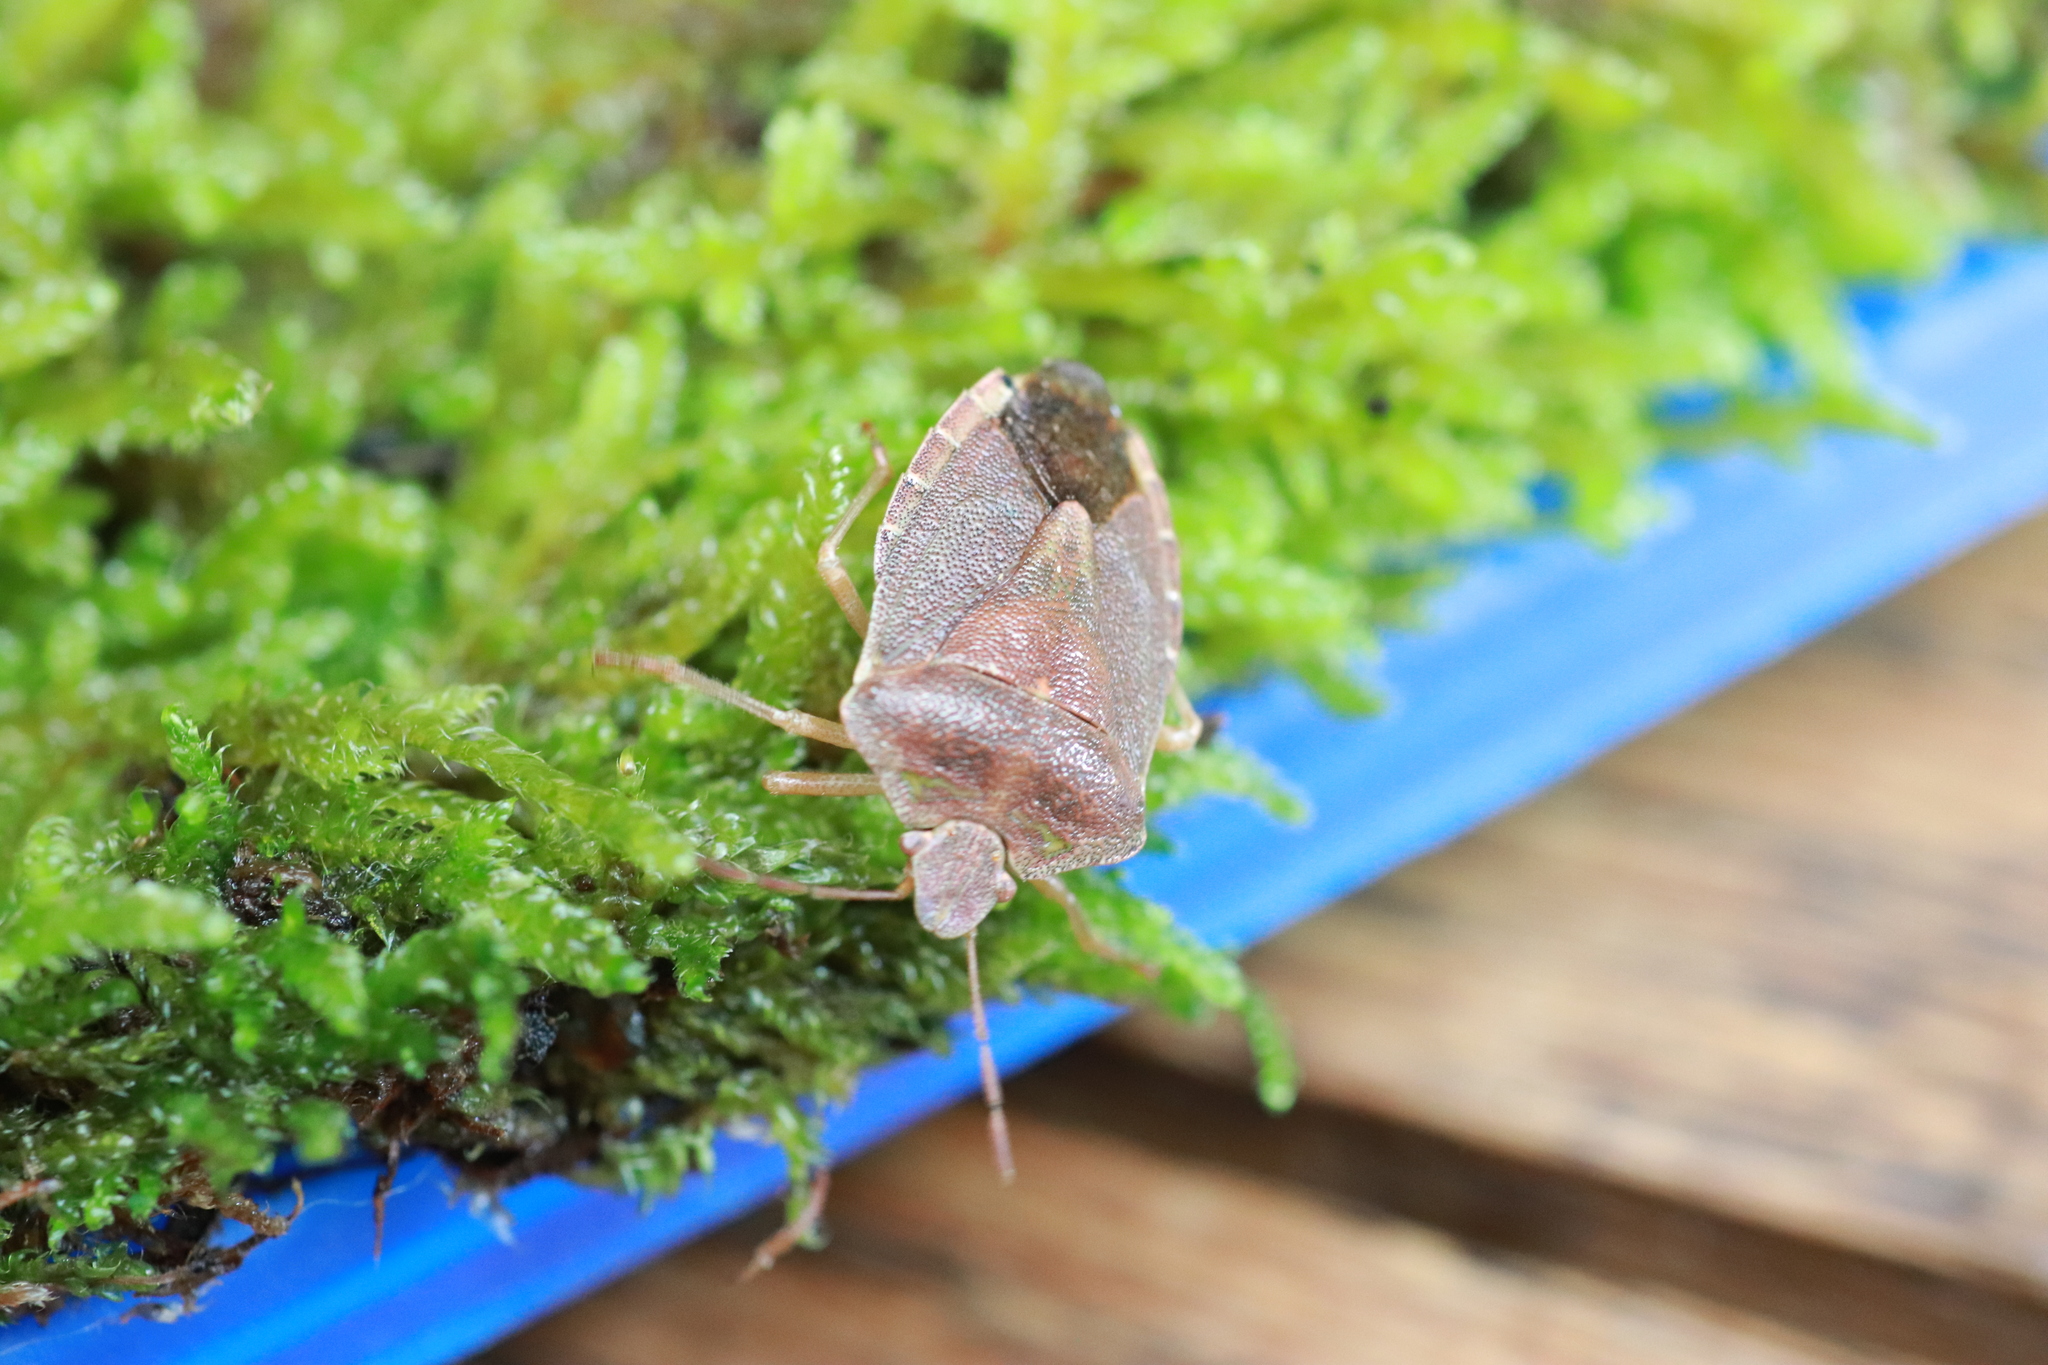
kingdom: Animalia
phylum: Arthropoda
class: Insecta
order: Hemiptera
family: Pentatomidae
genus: Palomena
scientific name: Palomena prasina
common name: Green shieldbug
